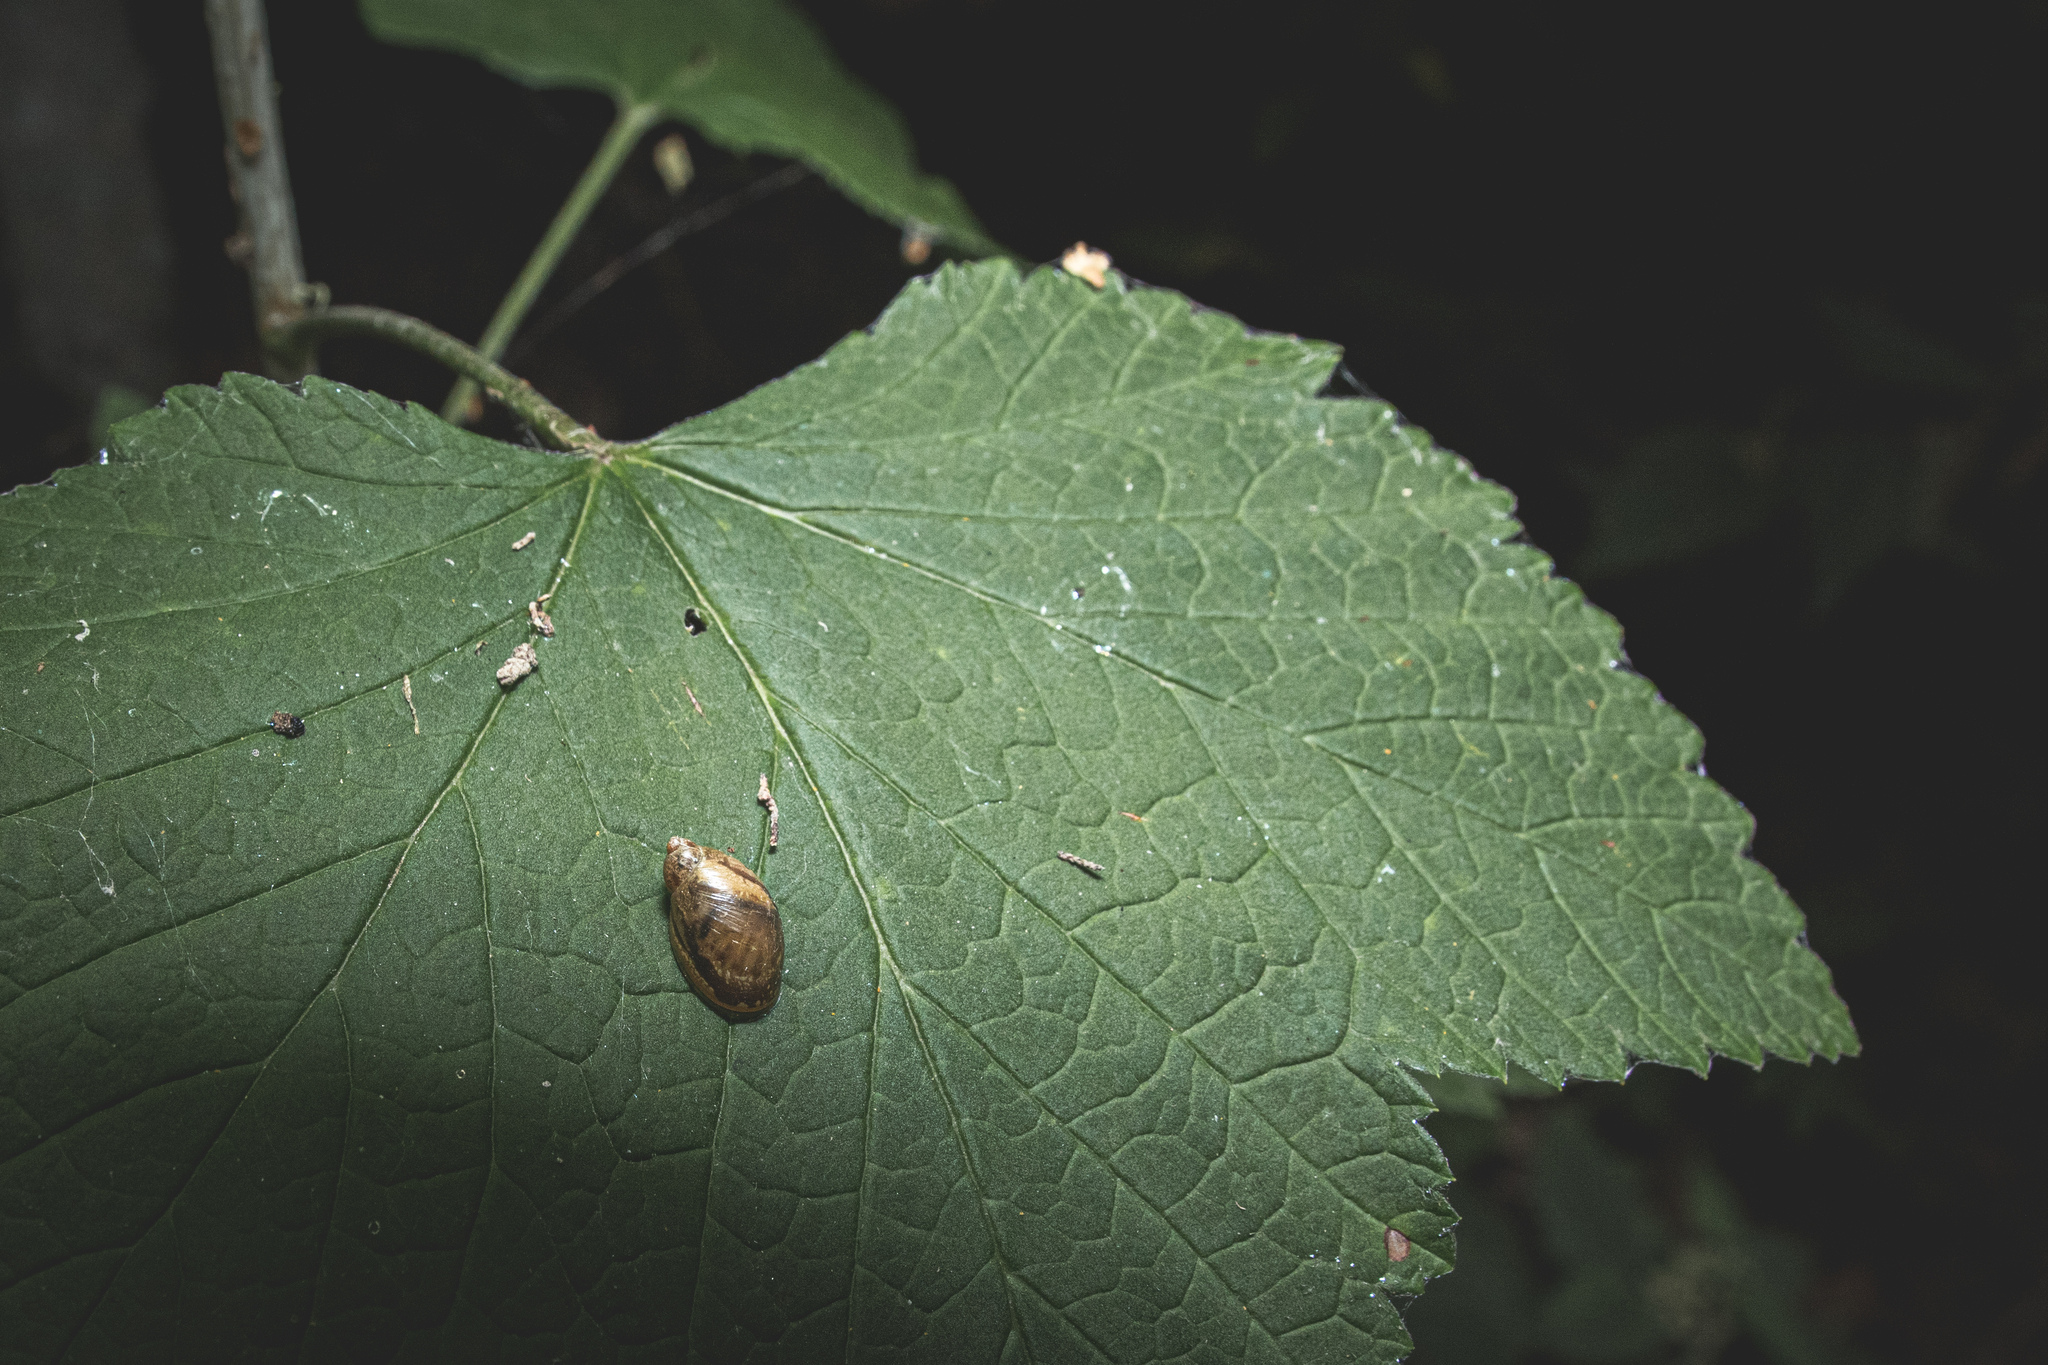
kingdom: Animalia
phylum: Mollusca
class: Gastropoda
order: Stylommatophora
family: Succineidae
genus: Succinea
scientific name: Succinea putris
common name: European ambersnail
